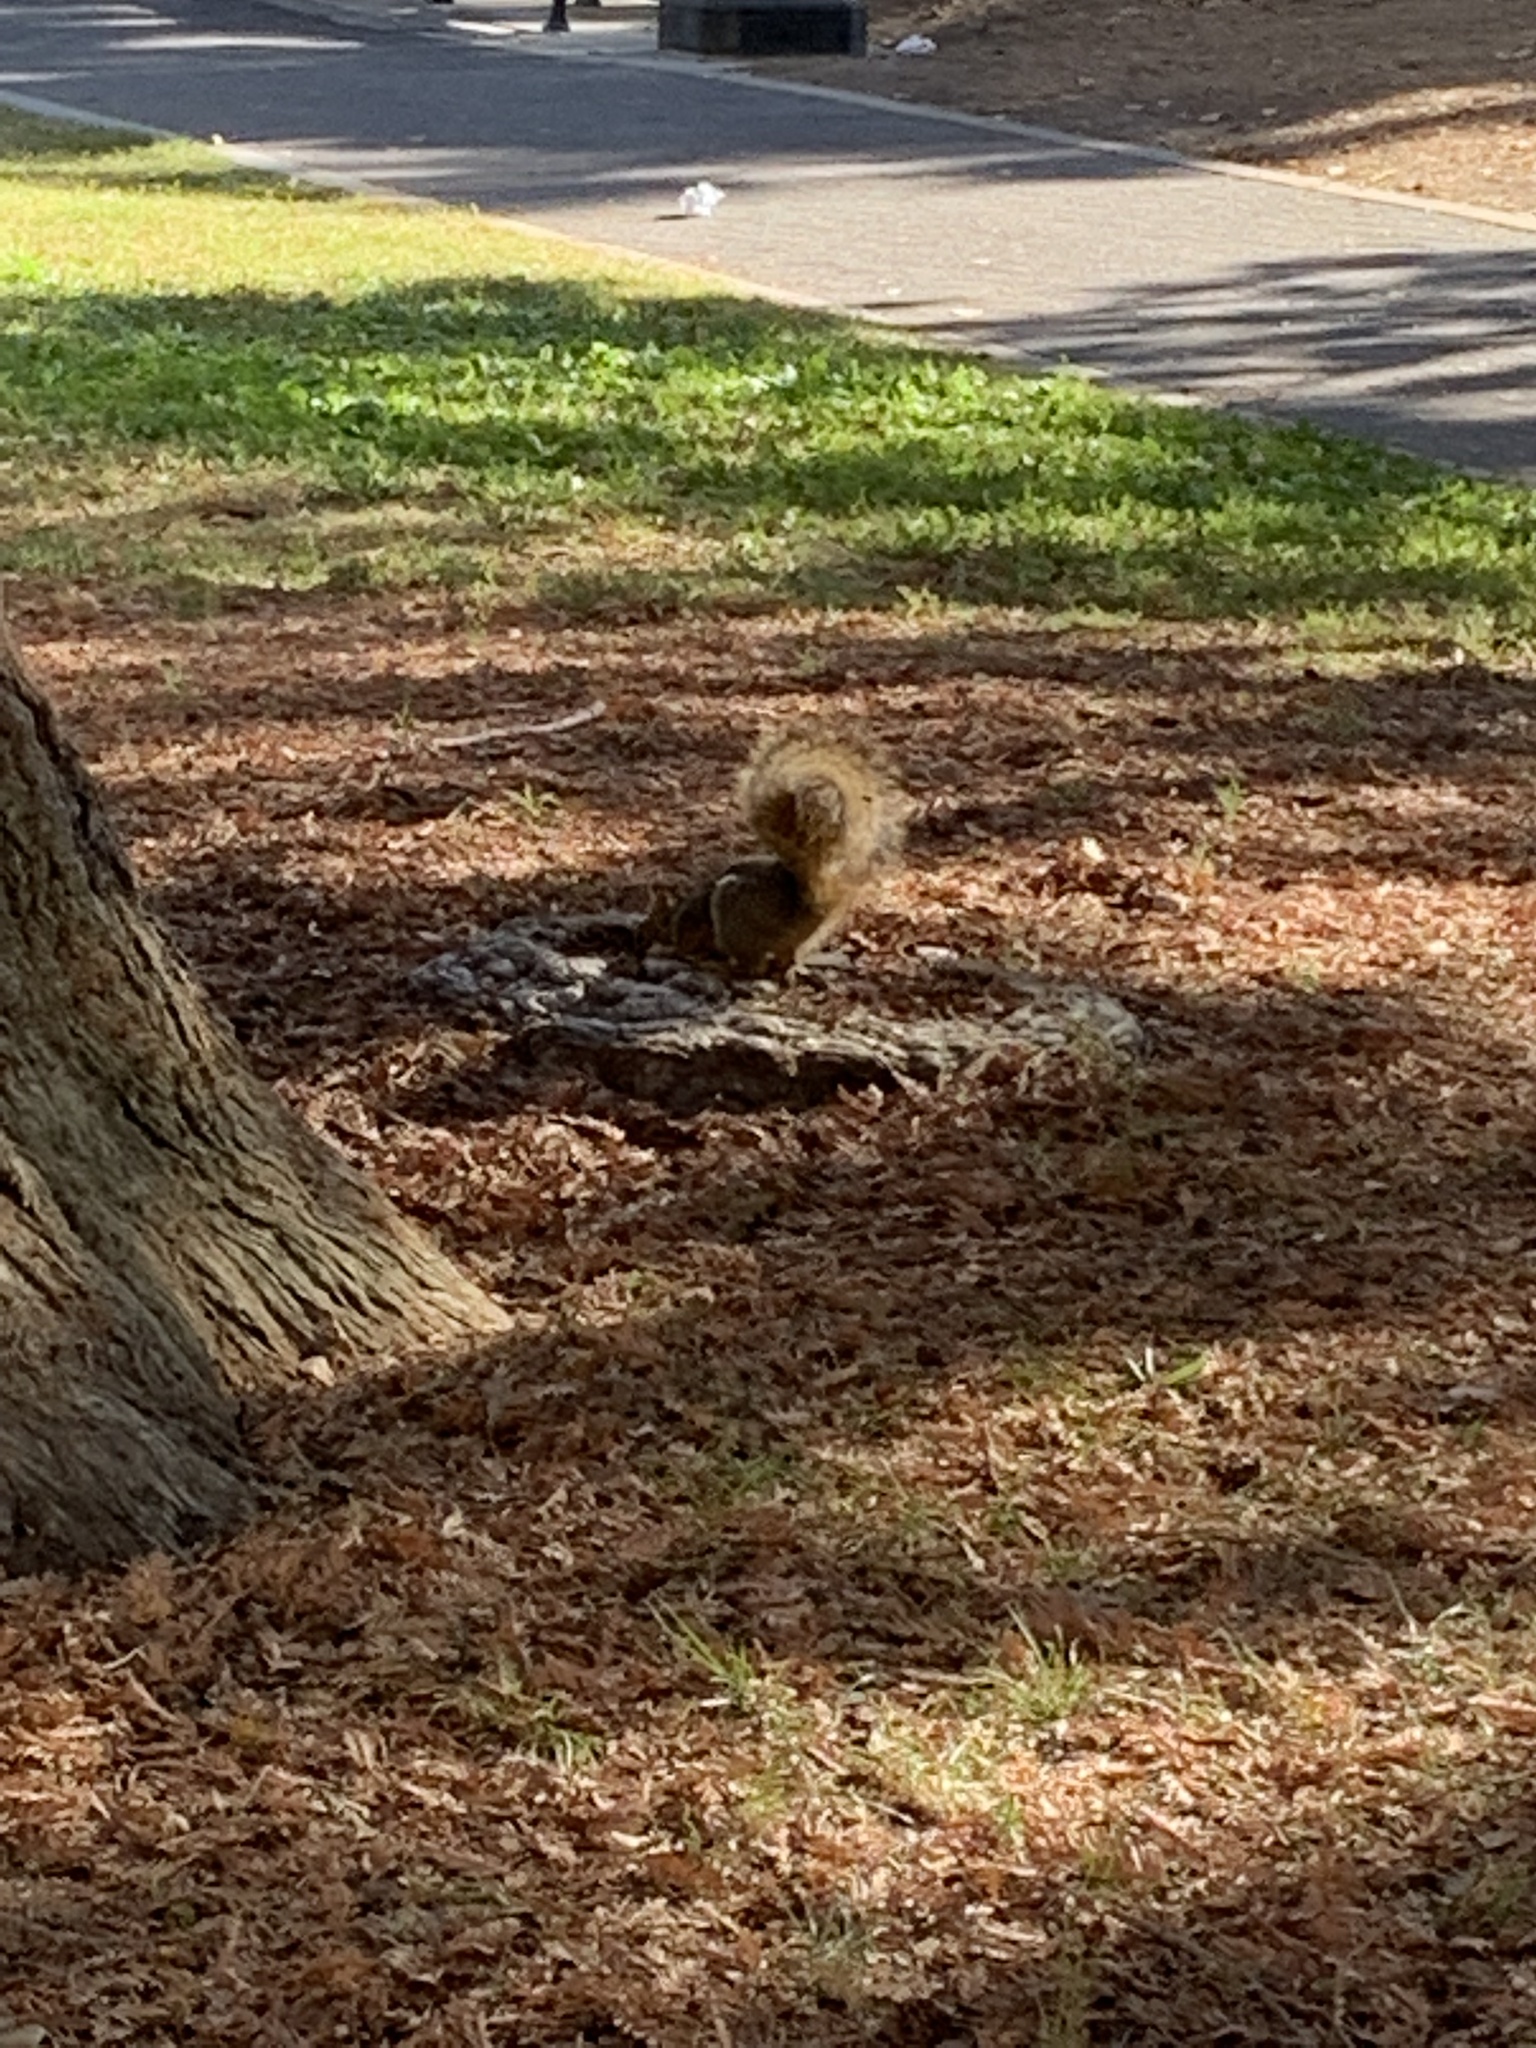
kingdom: Animalia
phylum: Chordata
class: Mammalia
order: Rodentia
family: Sciuridae
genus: Sciurus
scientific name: Sciurus niger
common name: Fox squirrel
